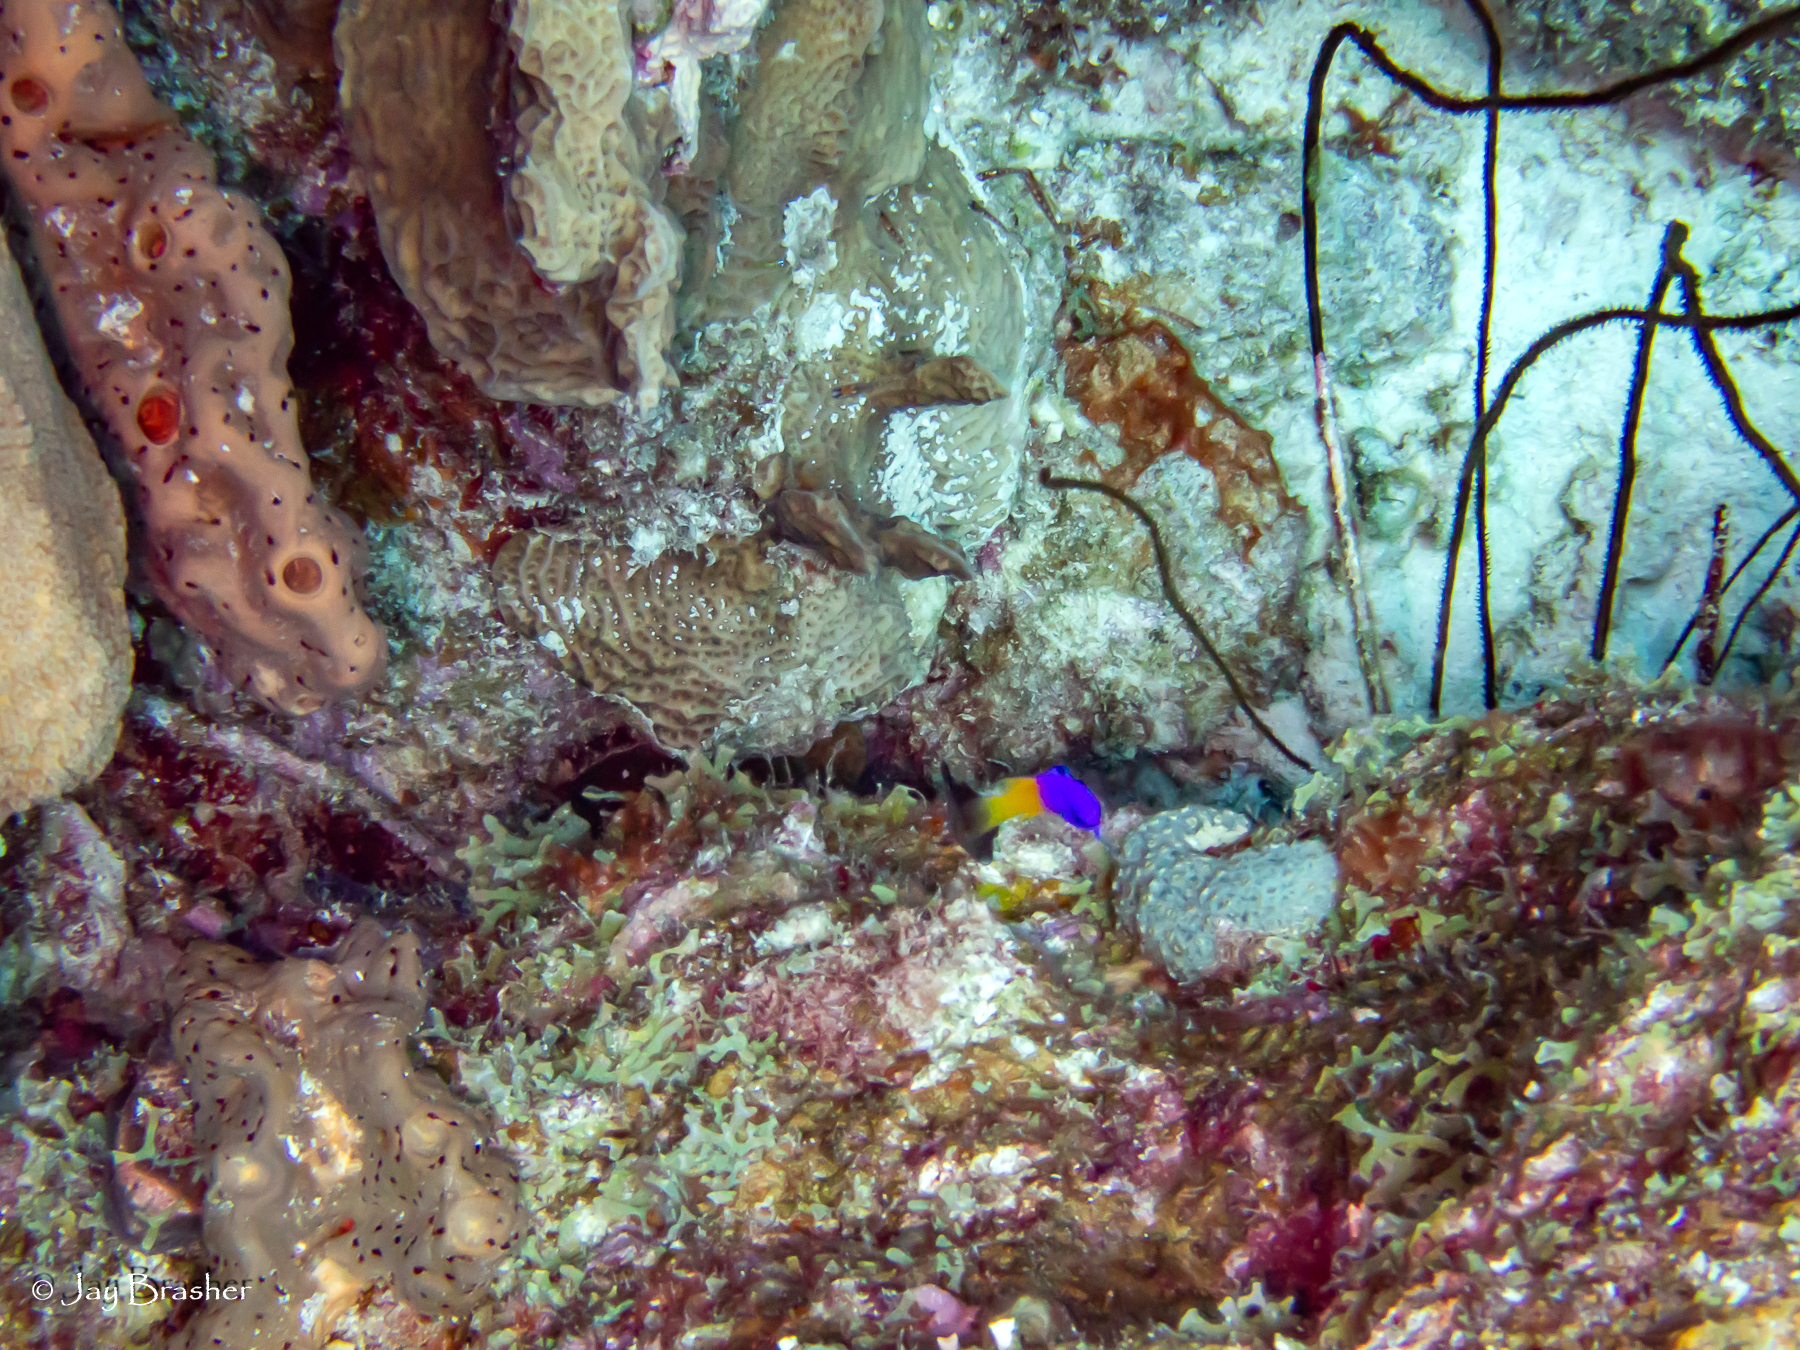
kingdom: Animalia
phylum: Chordata
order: Perciformes
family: Grammatidae
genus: Gramma
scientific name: Gramma loreto
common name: Fairy basslet
